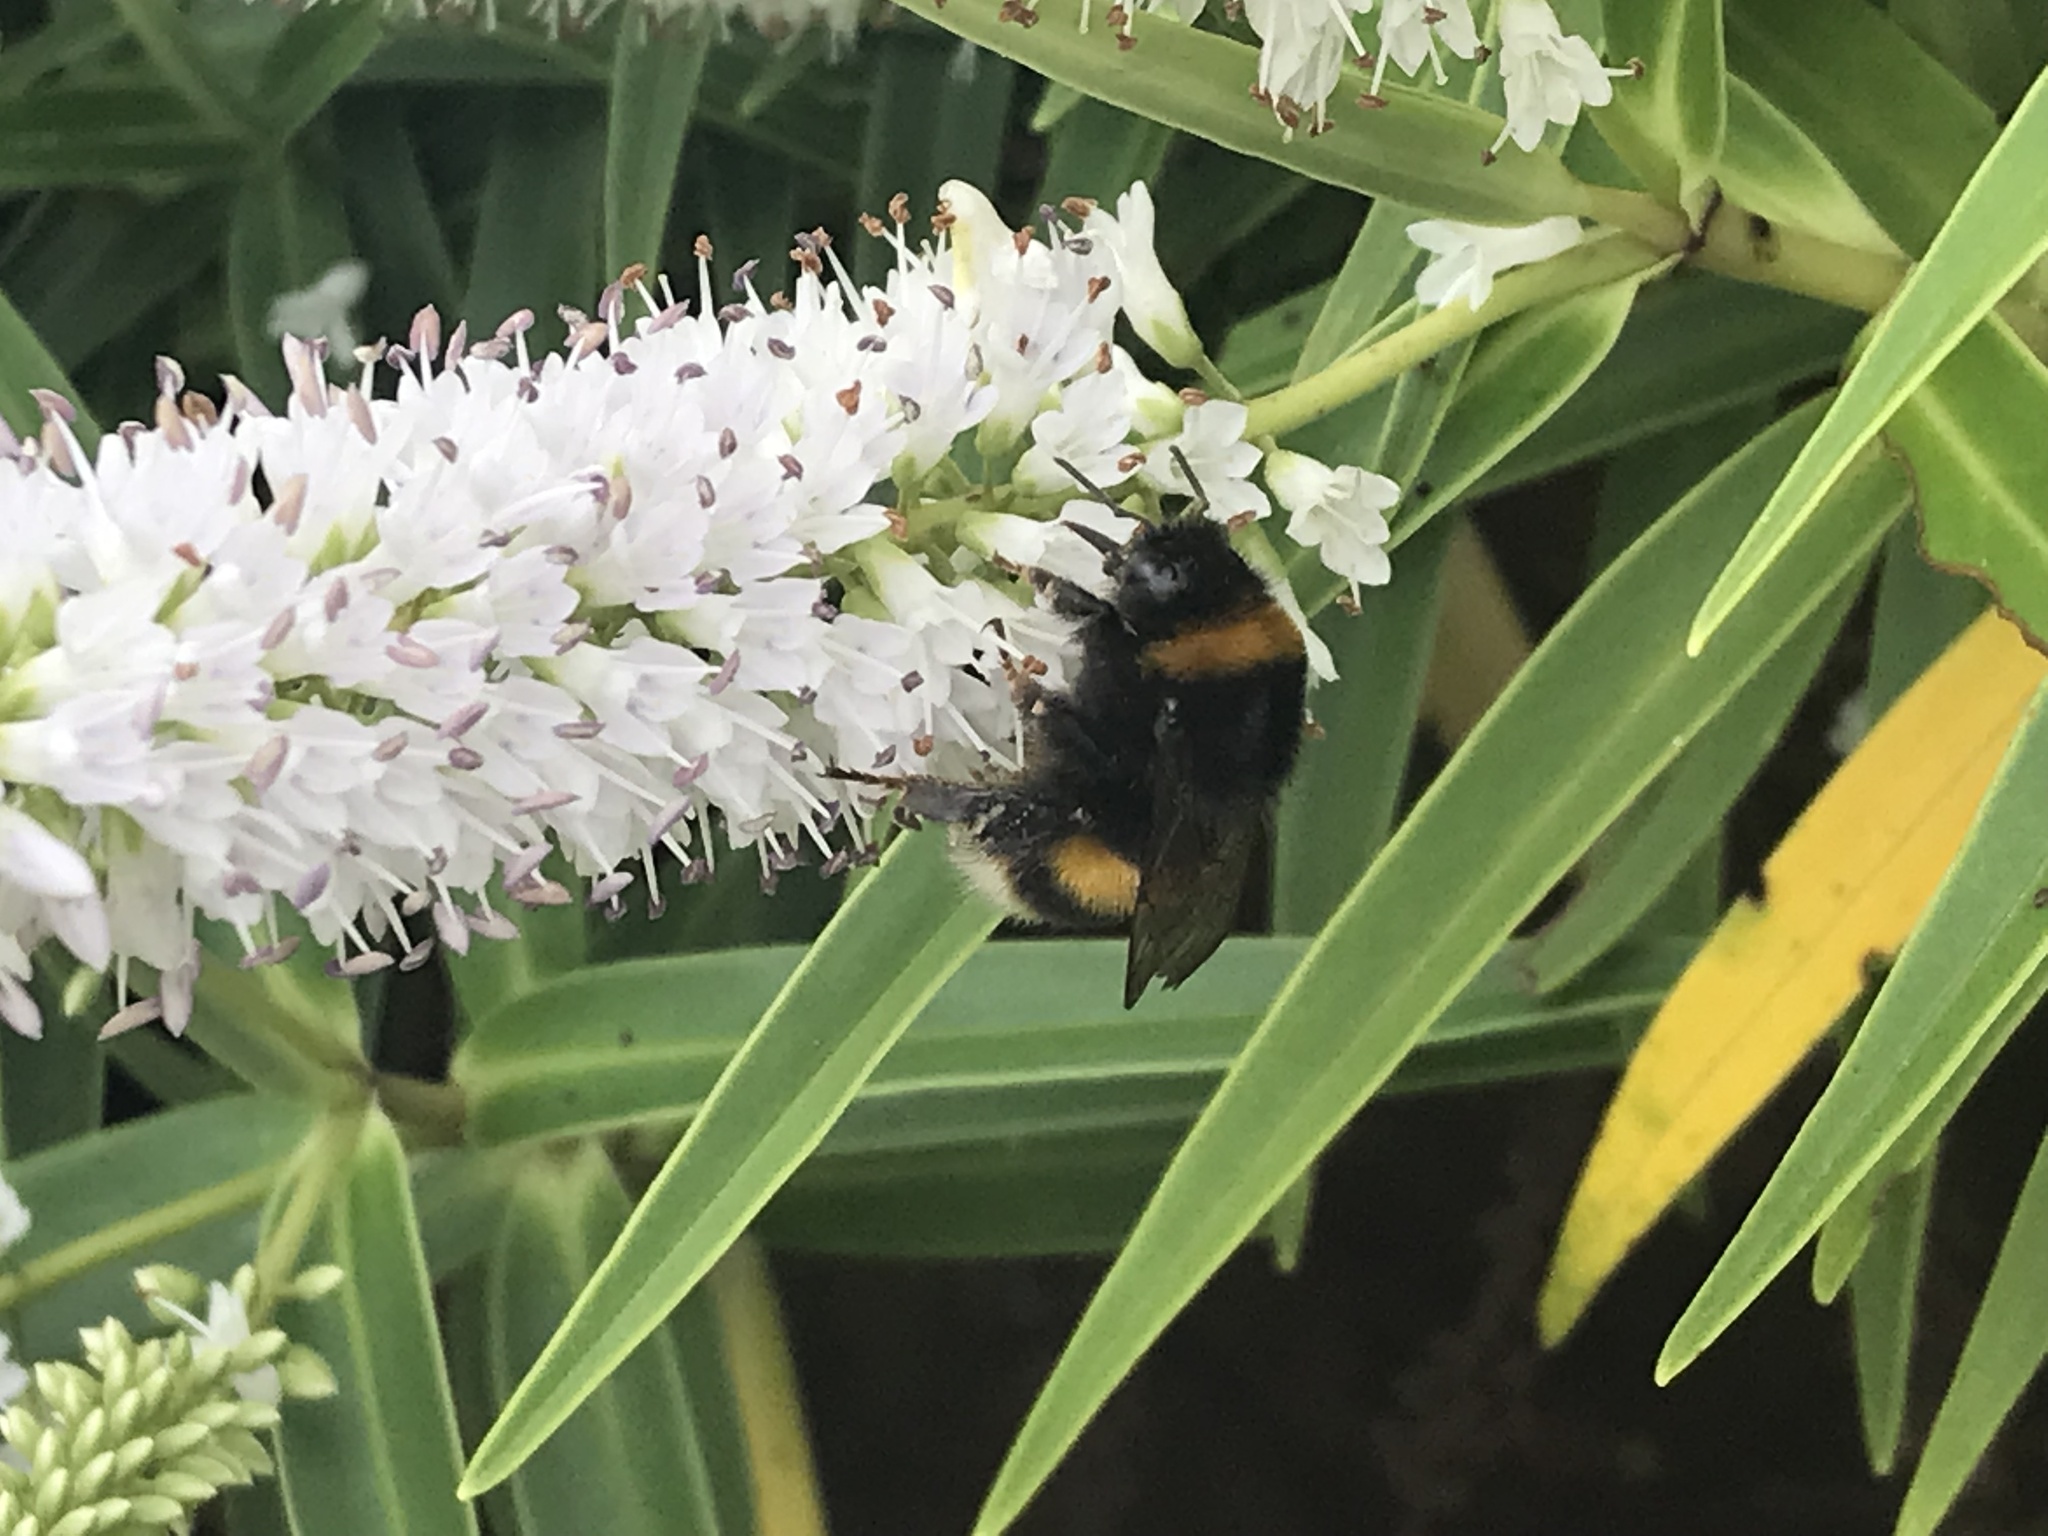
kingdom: Animalia
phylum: Arthropoda
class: Insecta
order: Hymenoptera
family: Apidae
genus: Bombus
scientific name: Bombus terrestris
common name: Buff-tailed bumblebee
